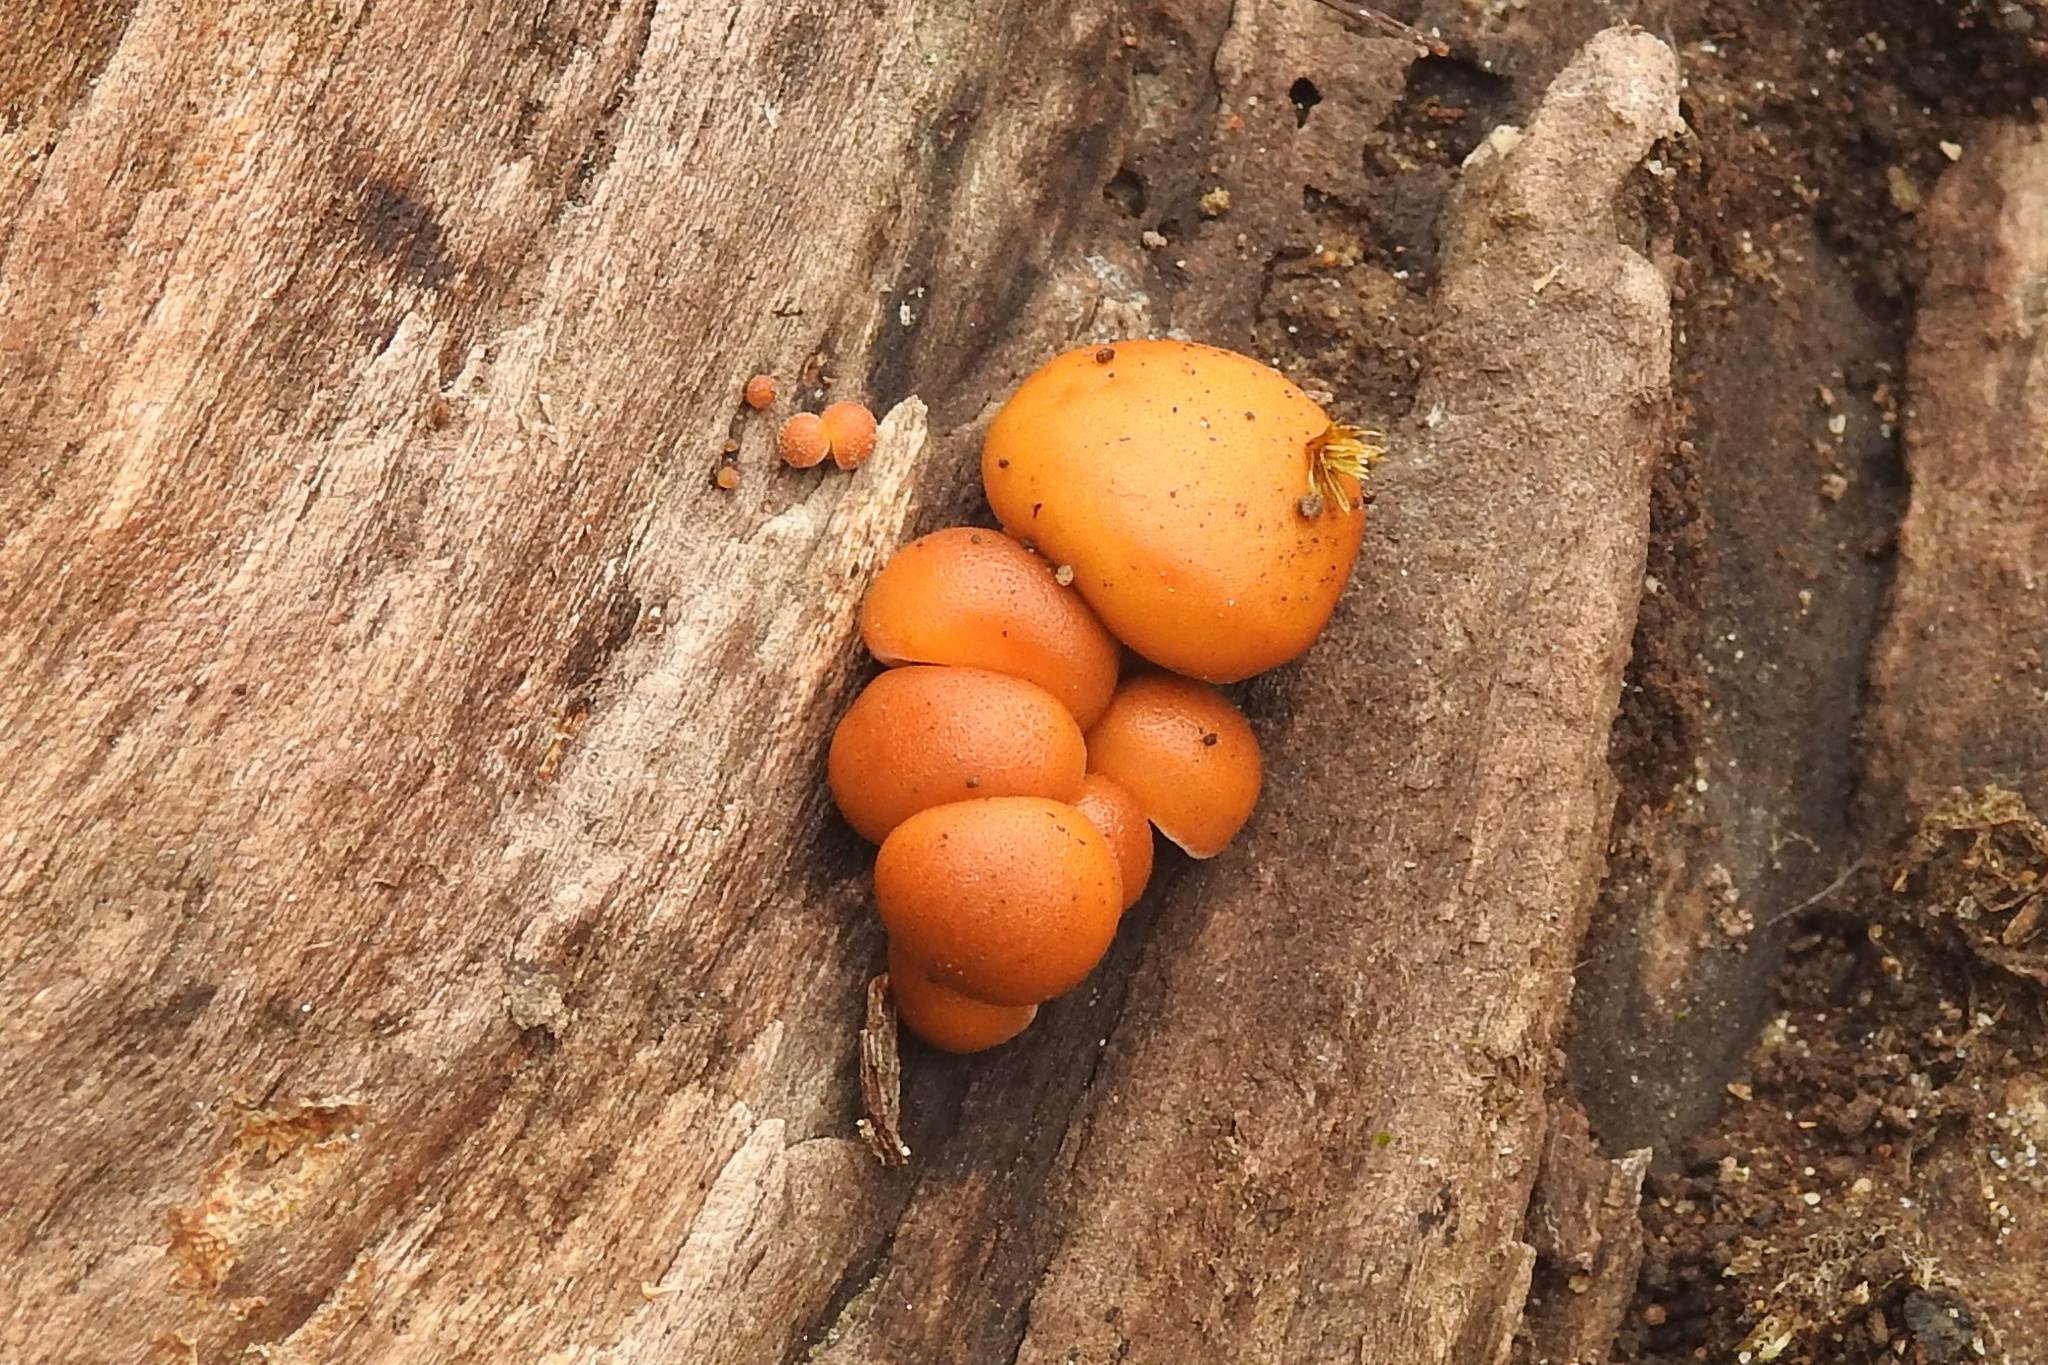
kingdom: Fungi
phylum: Basidiomycota
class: Agaricomycetes
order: Agaricales
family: Physalacriaceae
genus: Flammulina
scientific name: Flammulina velutipes
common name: Velvet shank
